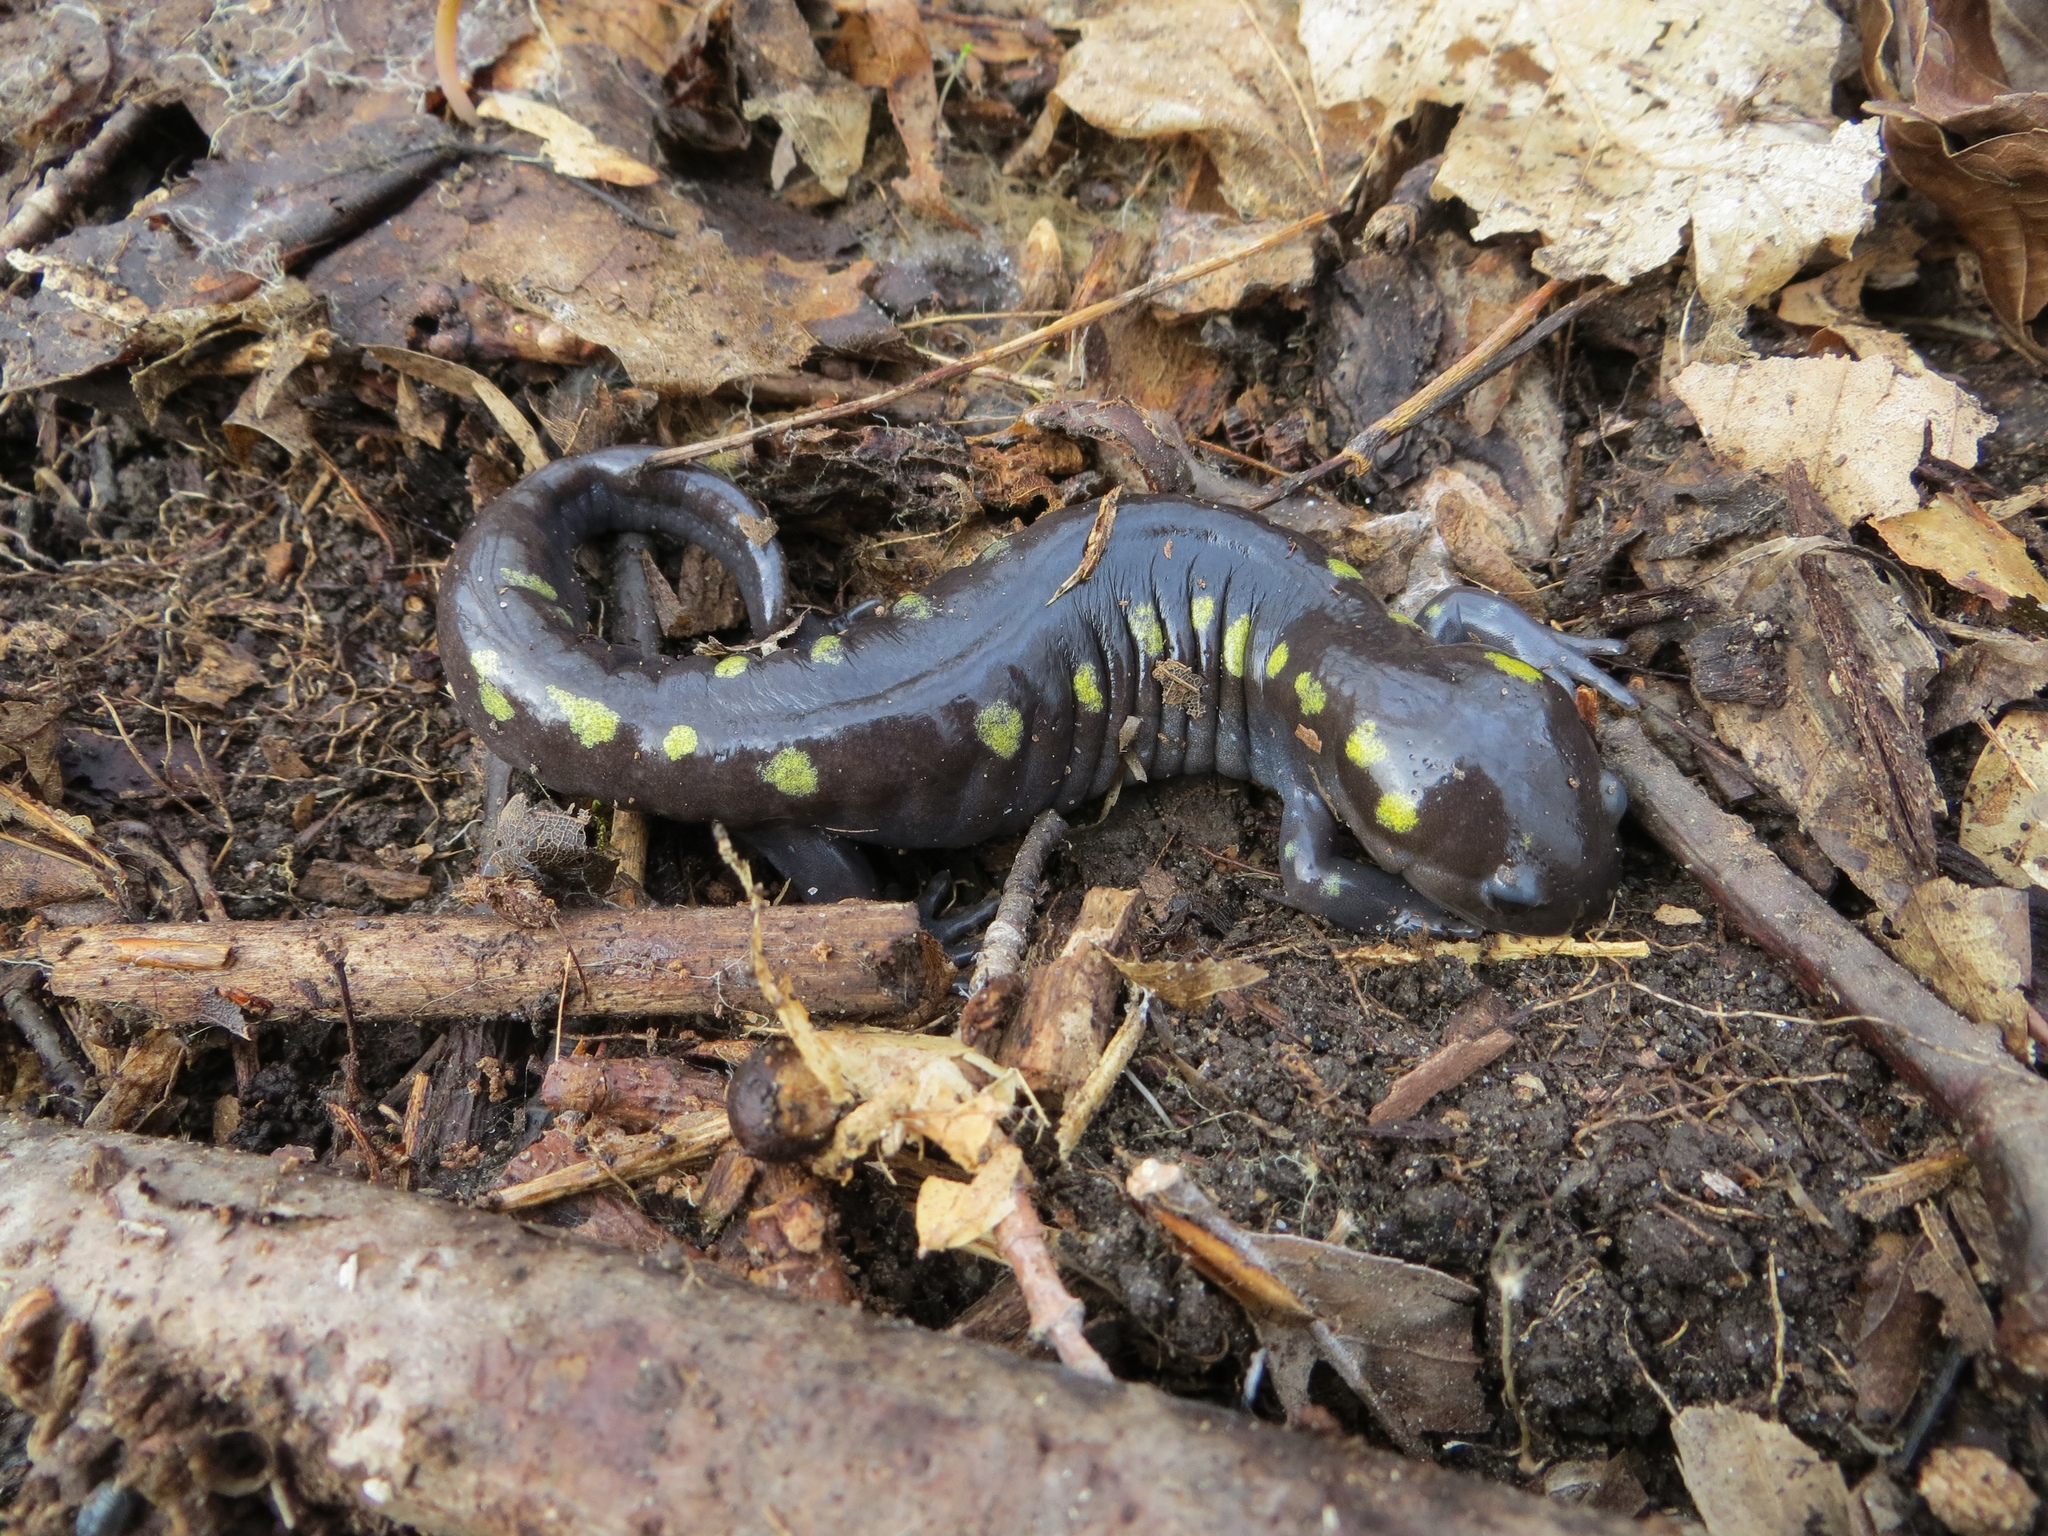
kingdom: Animalia
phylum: Chordata
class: Amphibia
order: Caudata
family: Ambystomatidae
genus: Ambystoma
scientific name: Ambystoma maculatum
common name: Spotted salamander
